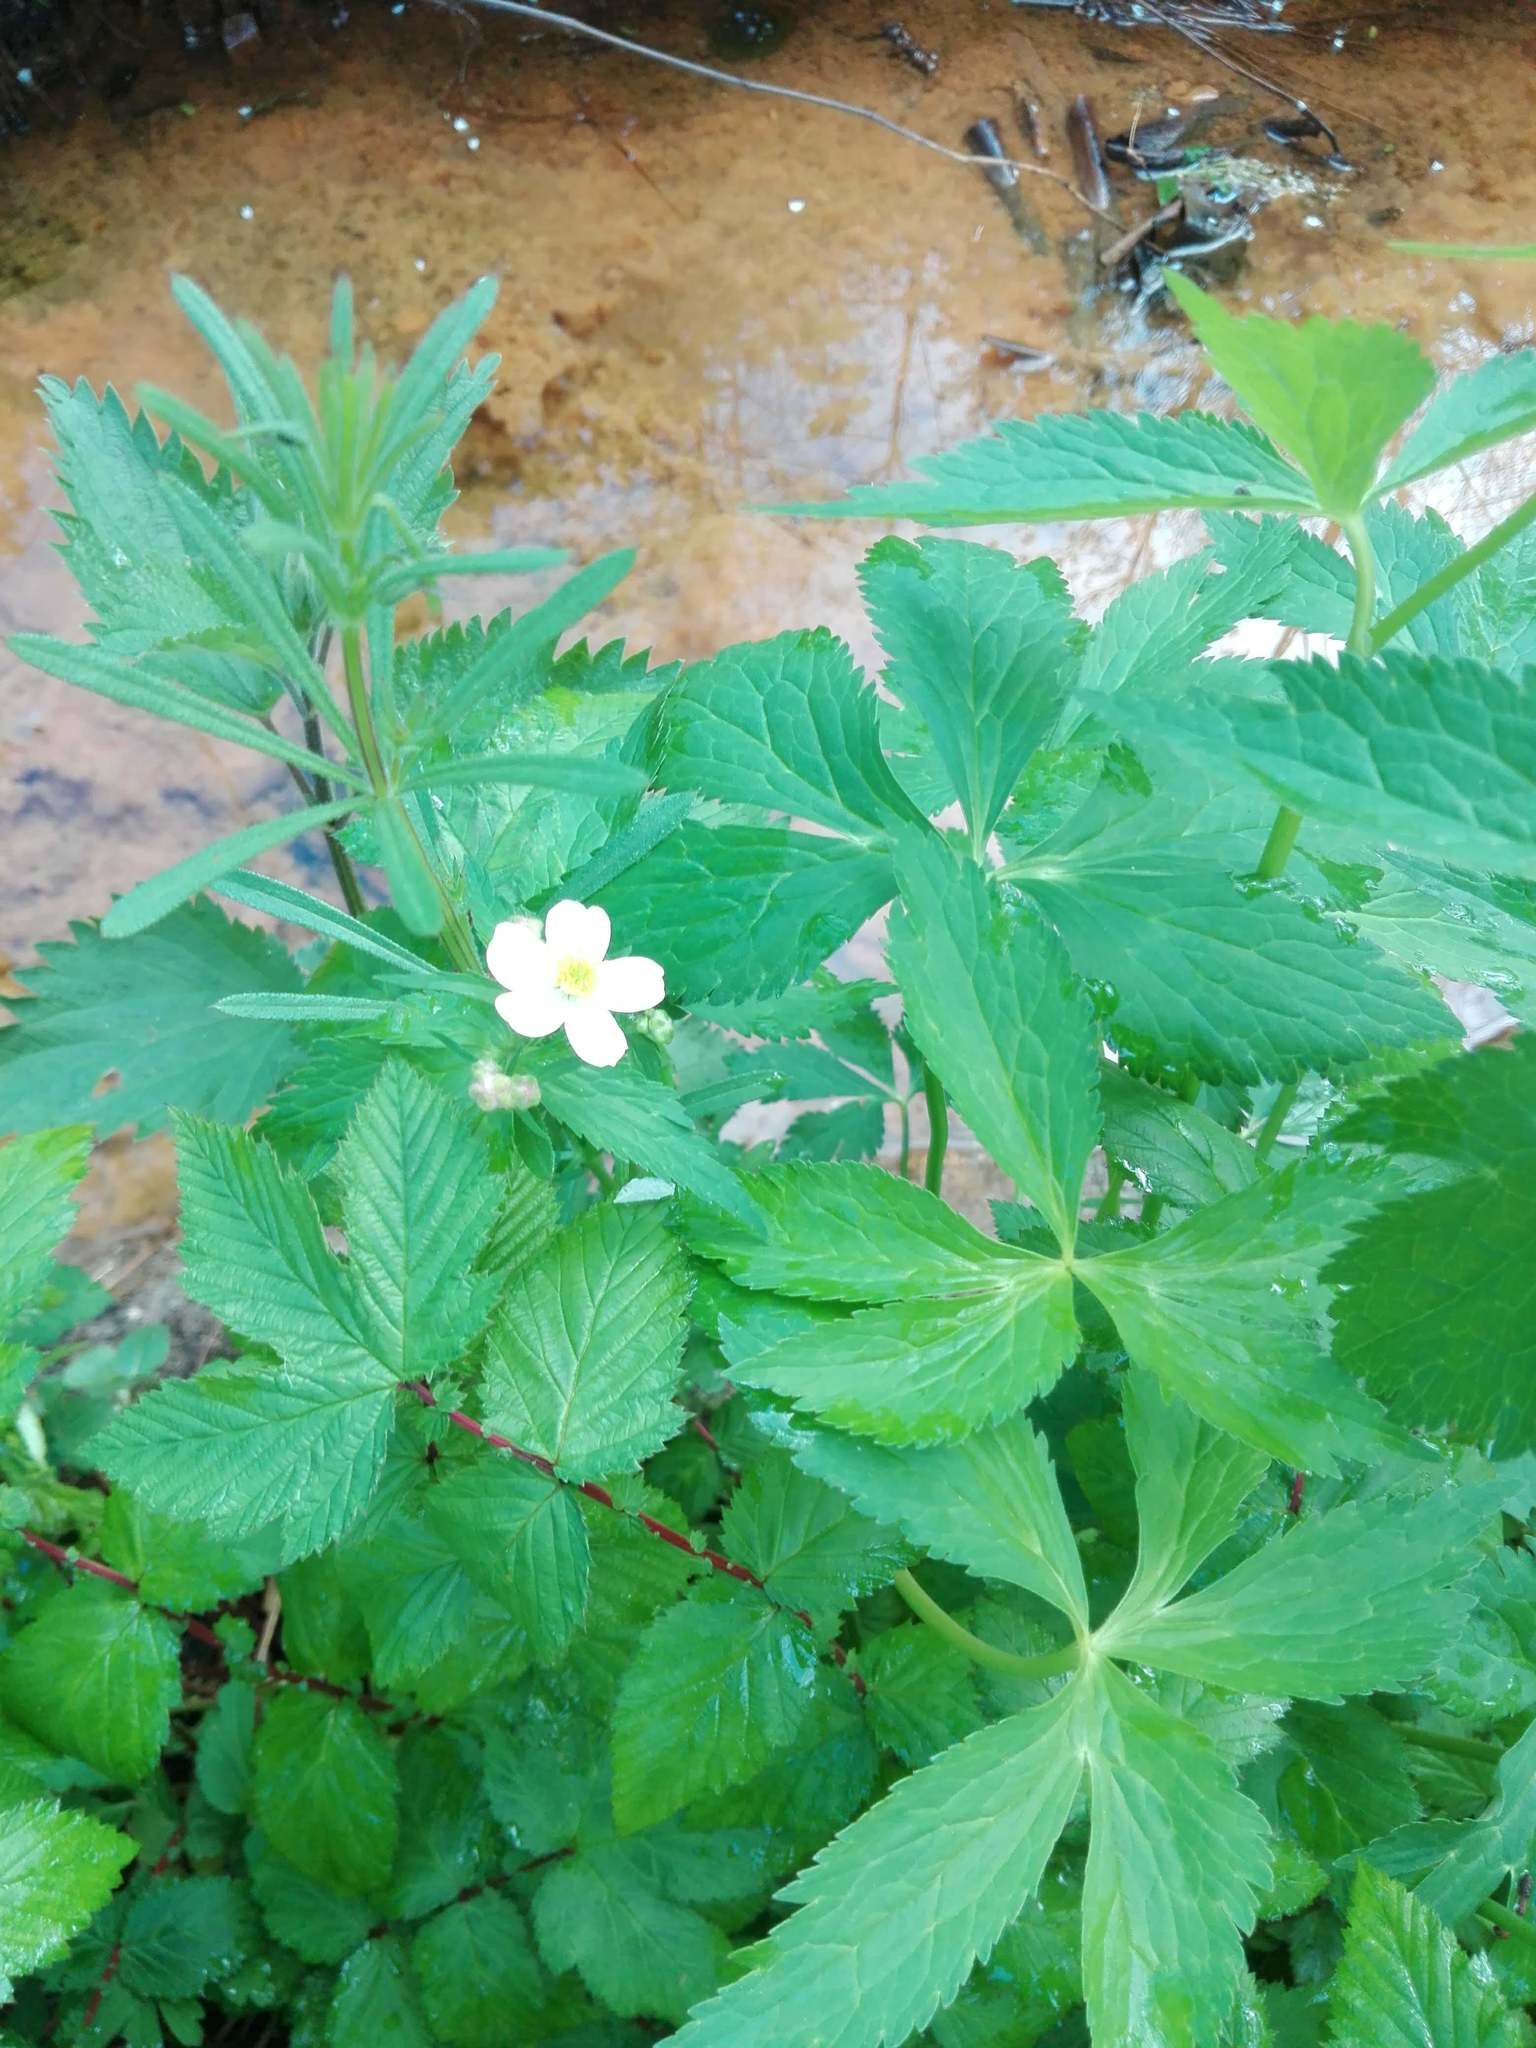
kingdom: Plantae
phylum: Tracheophyta
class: Magnoliopsida
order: Rosales
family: Rosaceae
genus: Filipendula
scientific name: Filipendula ulmaria
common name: Meadowsweet
